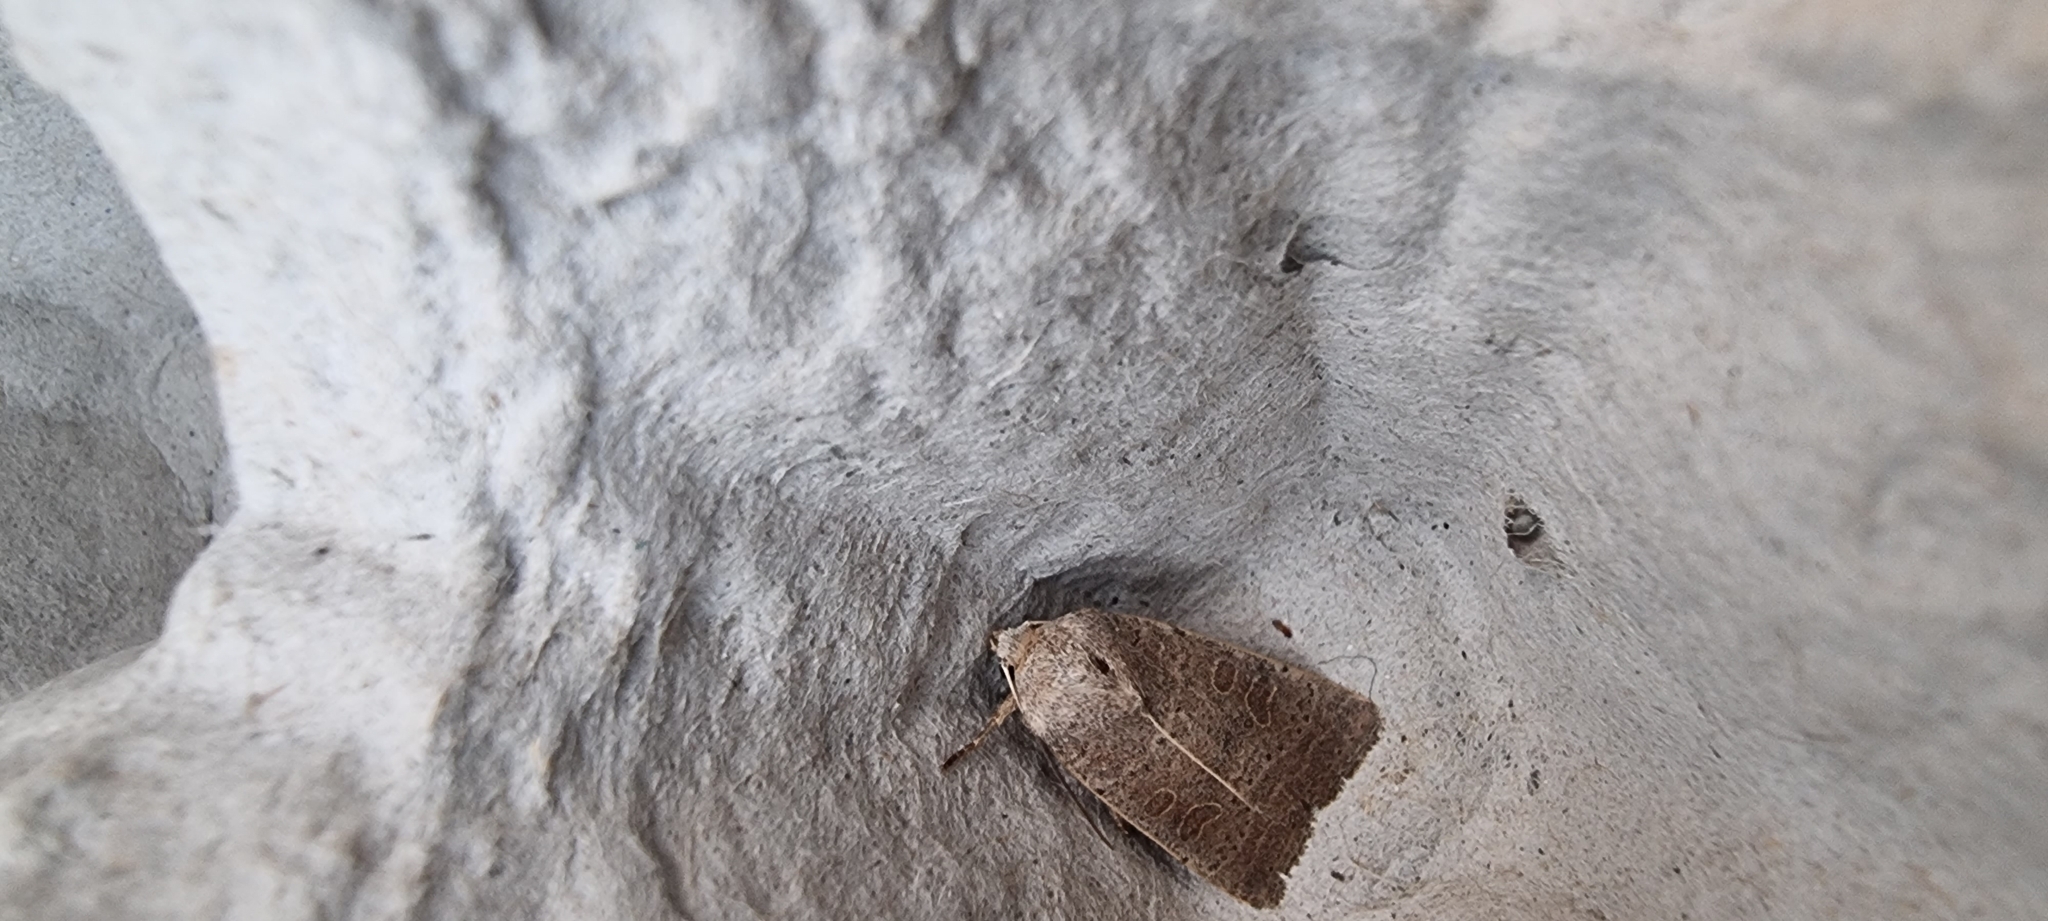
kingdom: Animalia
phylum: Arthropoda
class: Insecta
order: Lepidoptera
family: Noctuidae
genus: Hoplodrina
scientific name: Hoplodrina ambigua
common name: Vine's rustic
